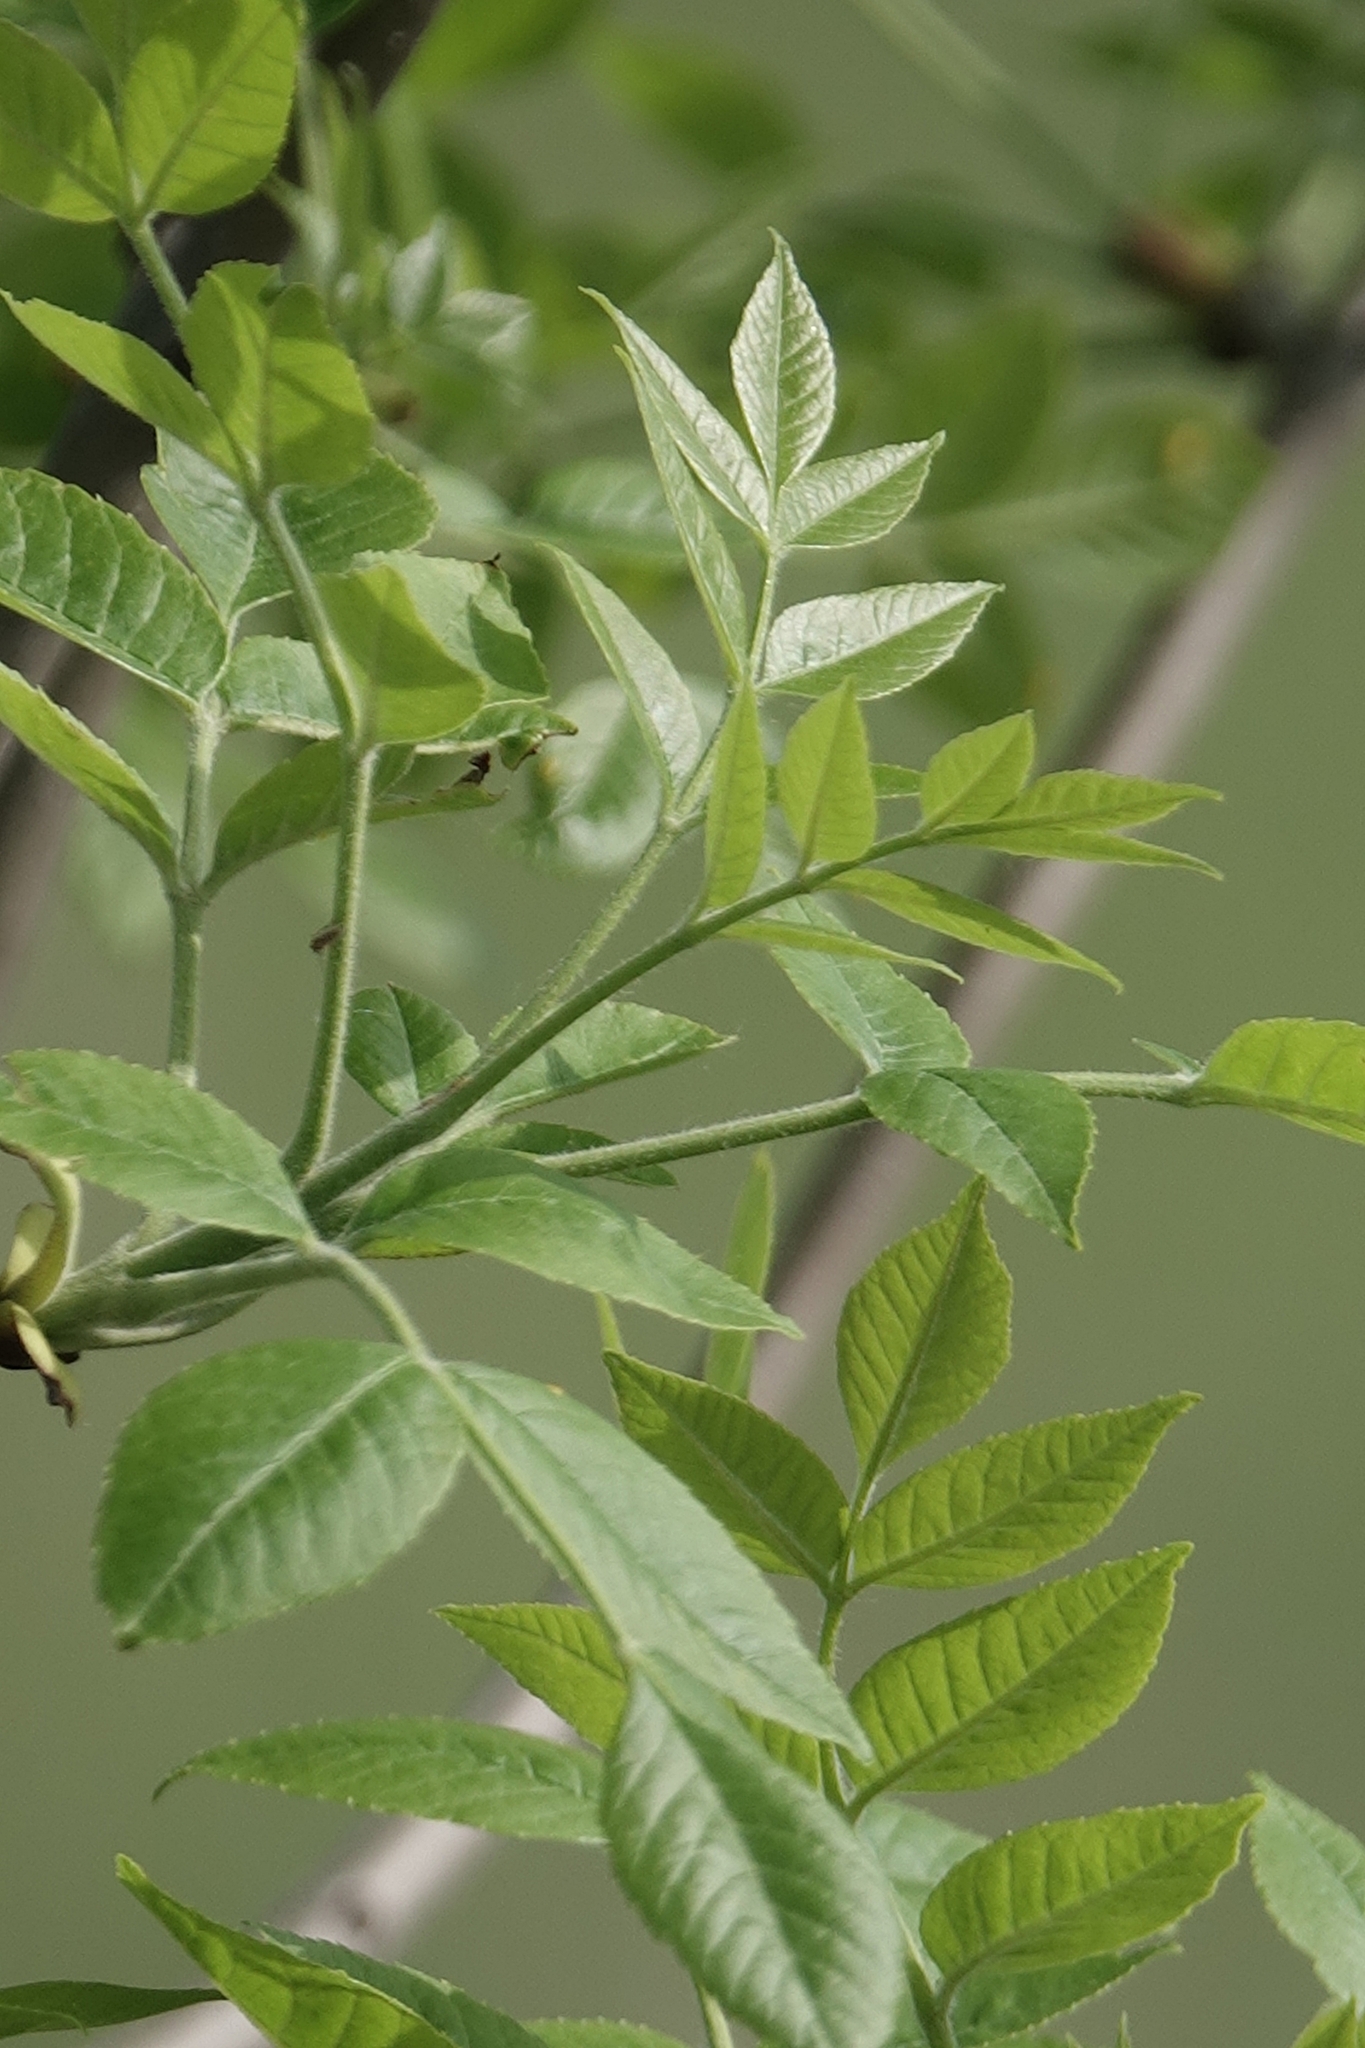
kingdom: Plantae
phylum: Tracheophyta
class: Magnoliopsida
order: Lamiales
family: Oleaceae
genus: Fraxinus
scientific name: Fraxinus pennsylvanica
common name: Green ash
